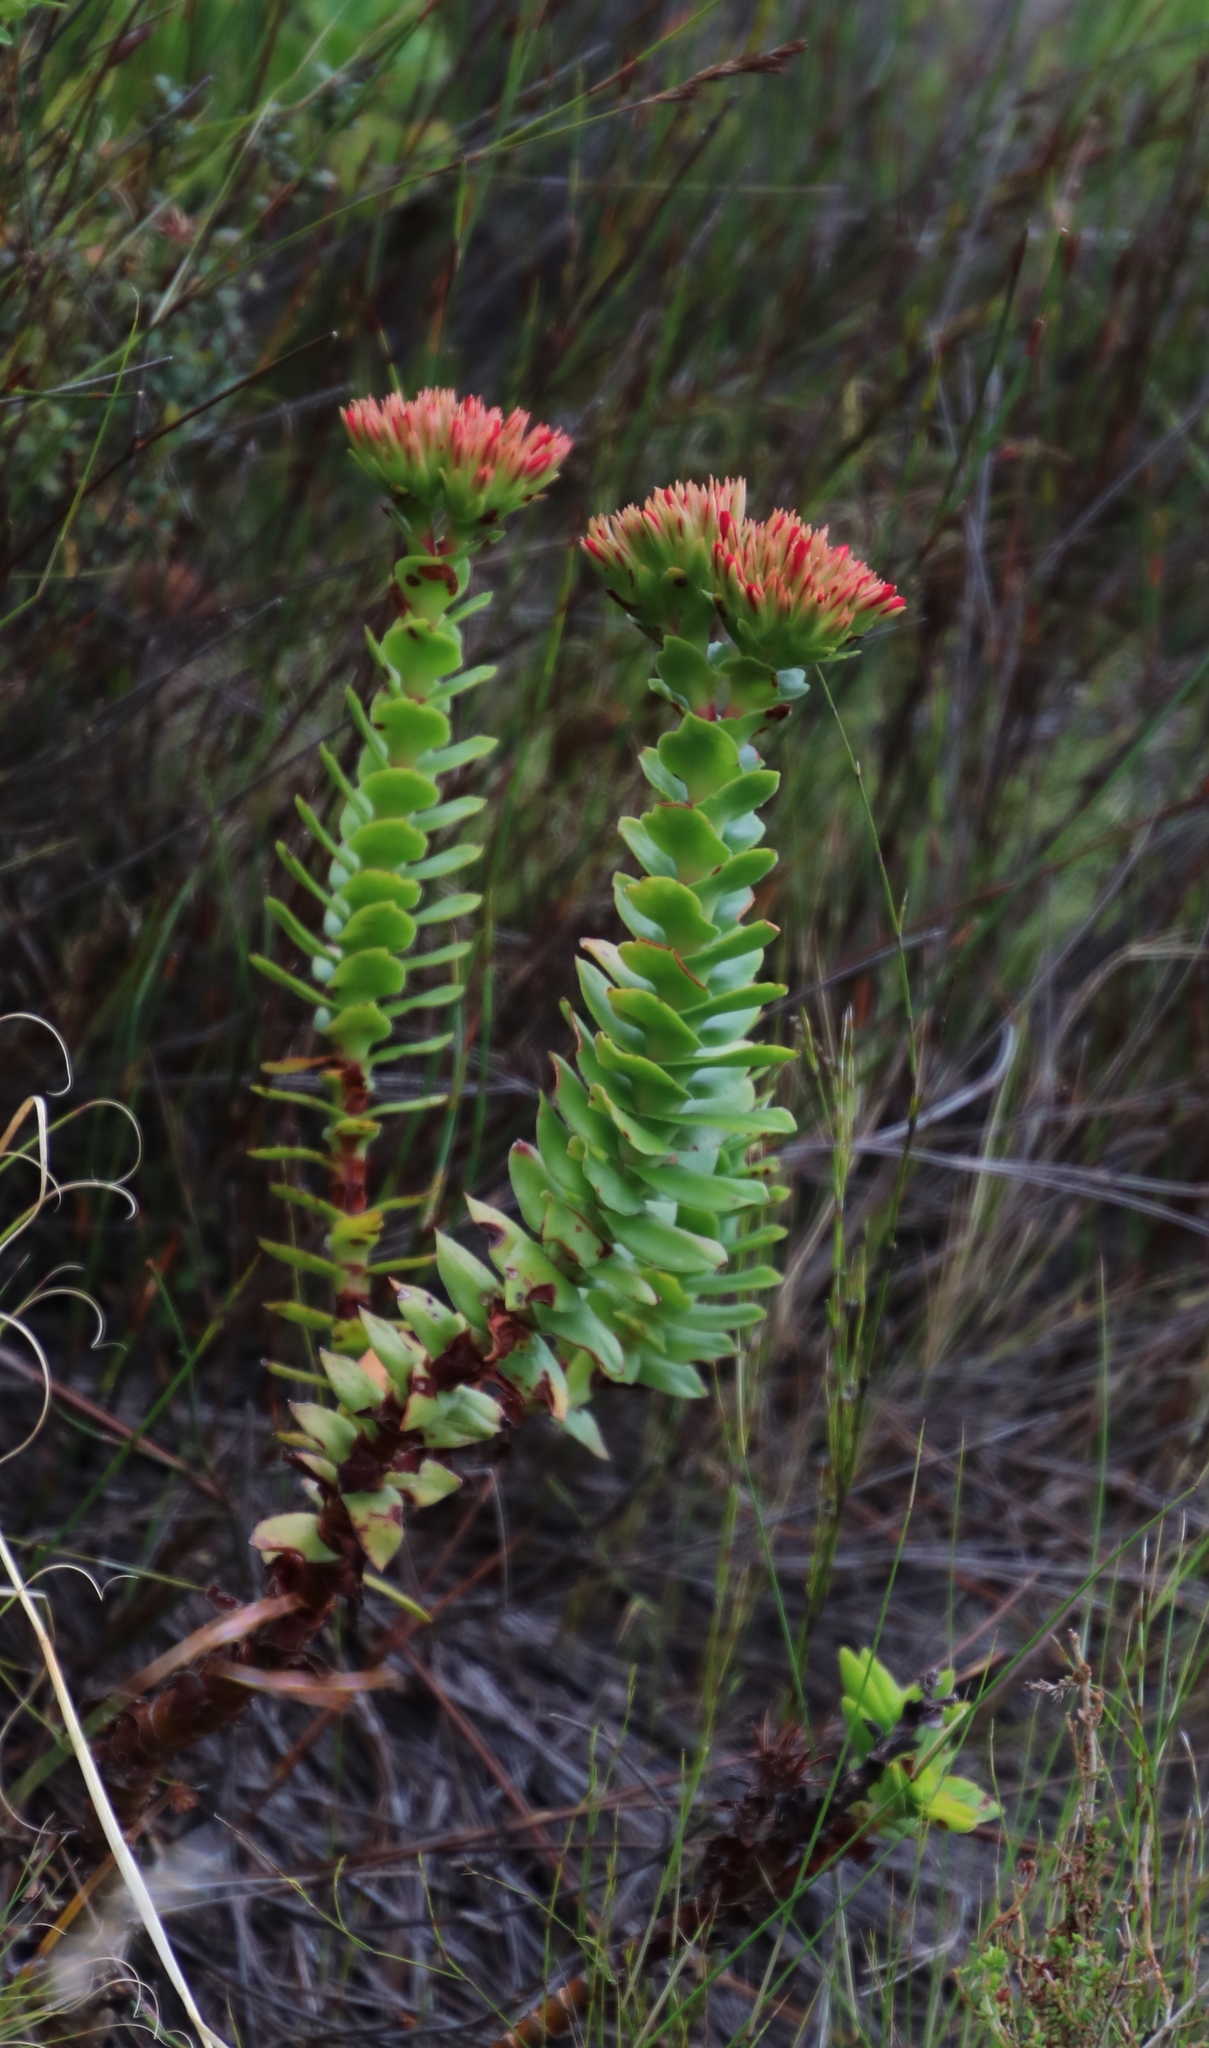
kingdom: Plantae
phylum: Tracheophyta
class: Magnoliopsida
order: Saxifragales
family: Crassulaceae
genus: Crassula
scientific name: Crassula coccinea
